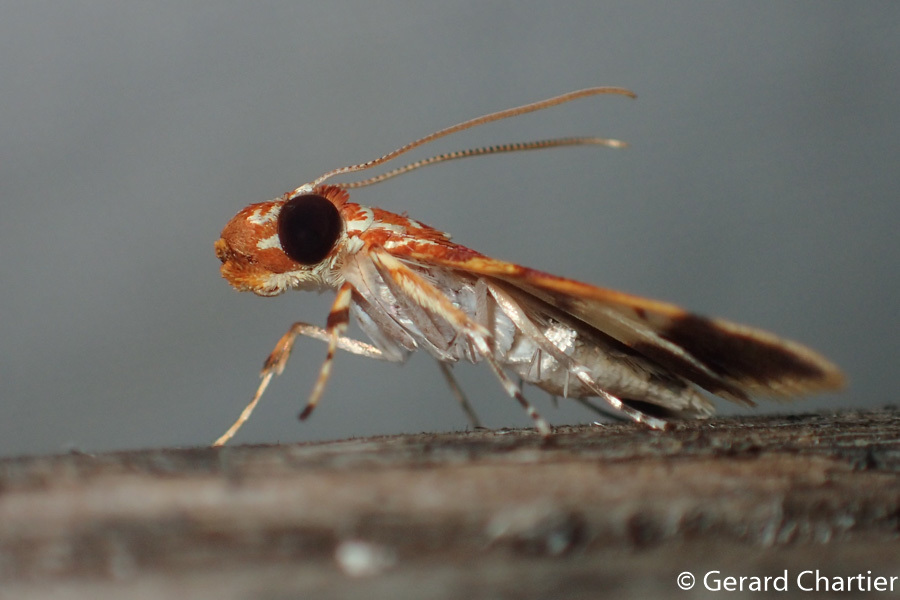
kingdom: Animalia
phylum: Arthropoda
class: Insecta
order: Lepidoptera
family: Crambidae
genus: Taurometopa
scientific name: Taurometopa pyrometalla
